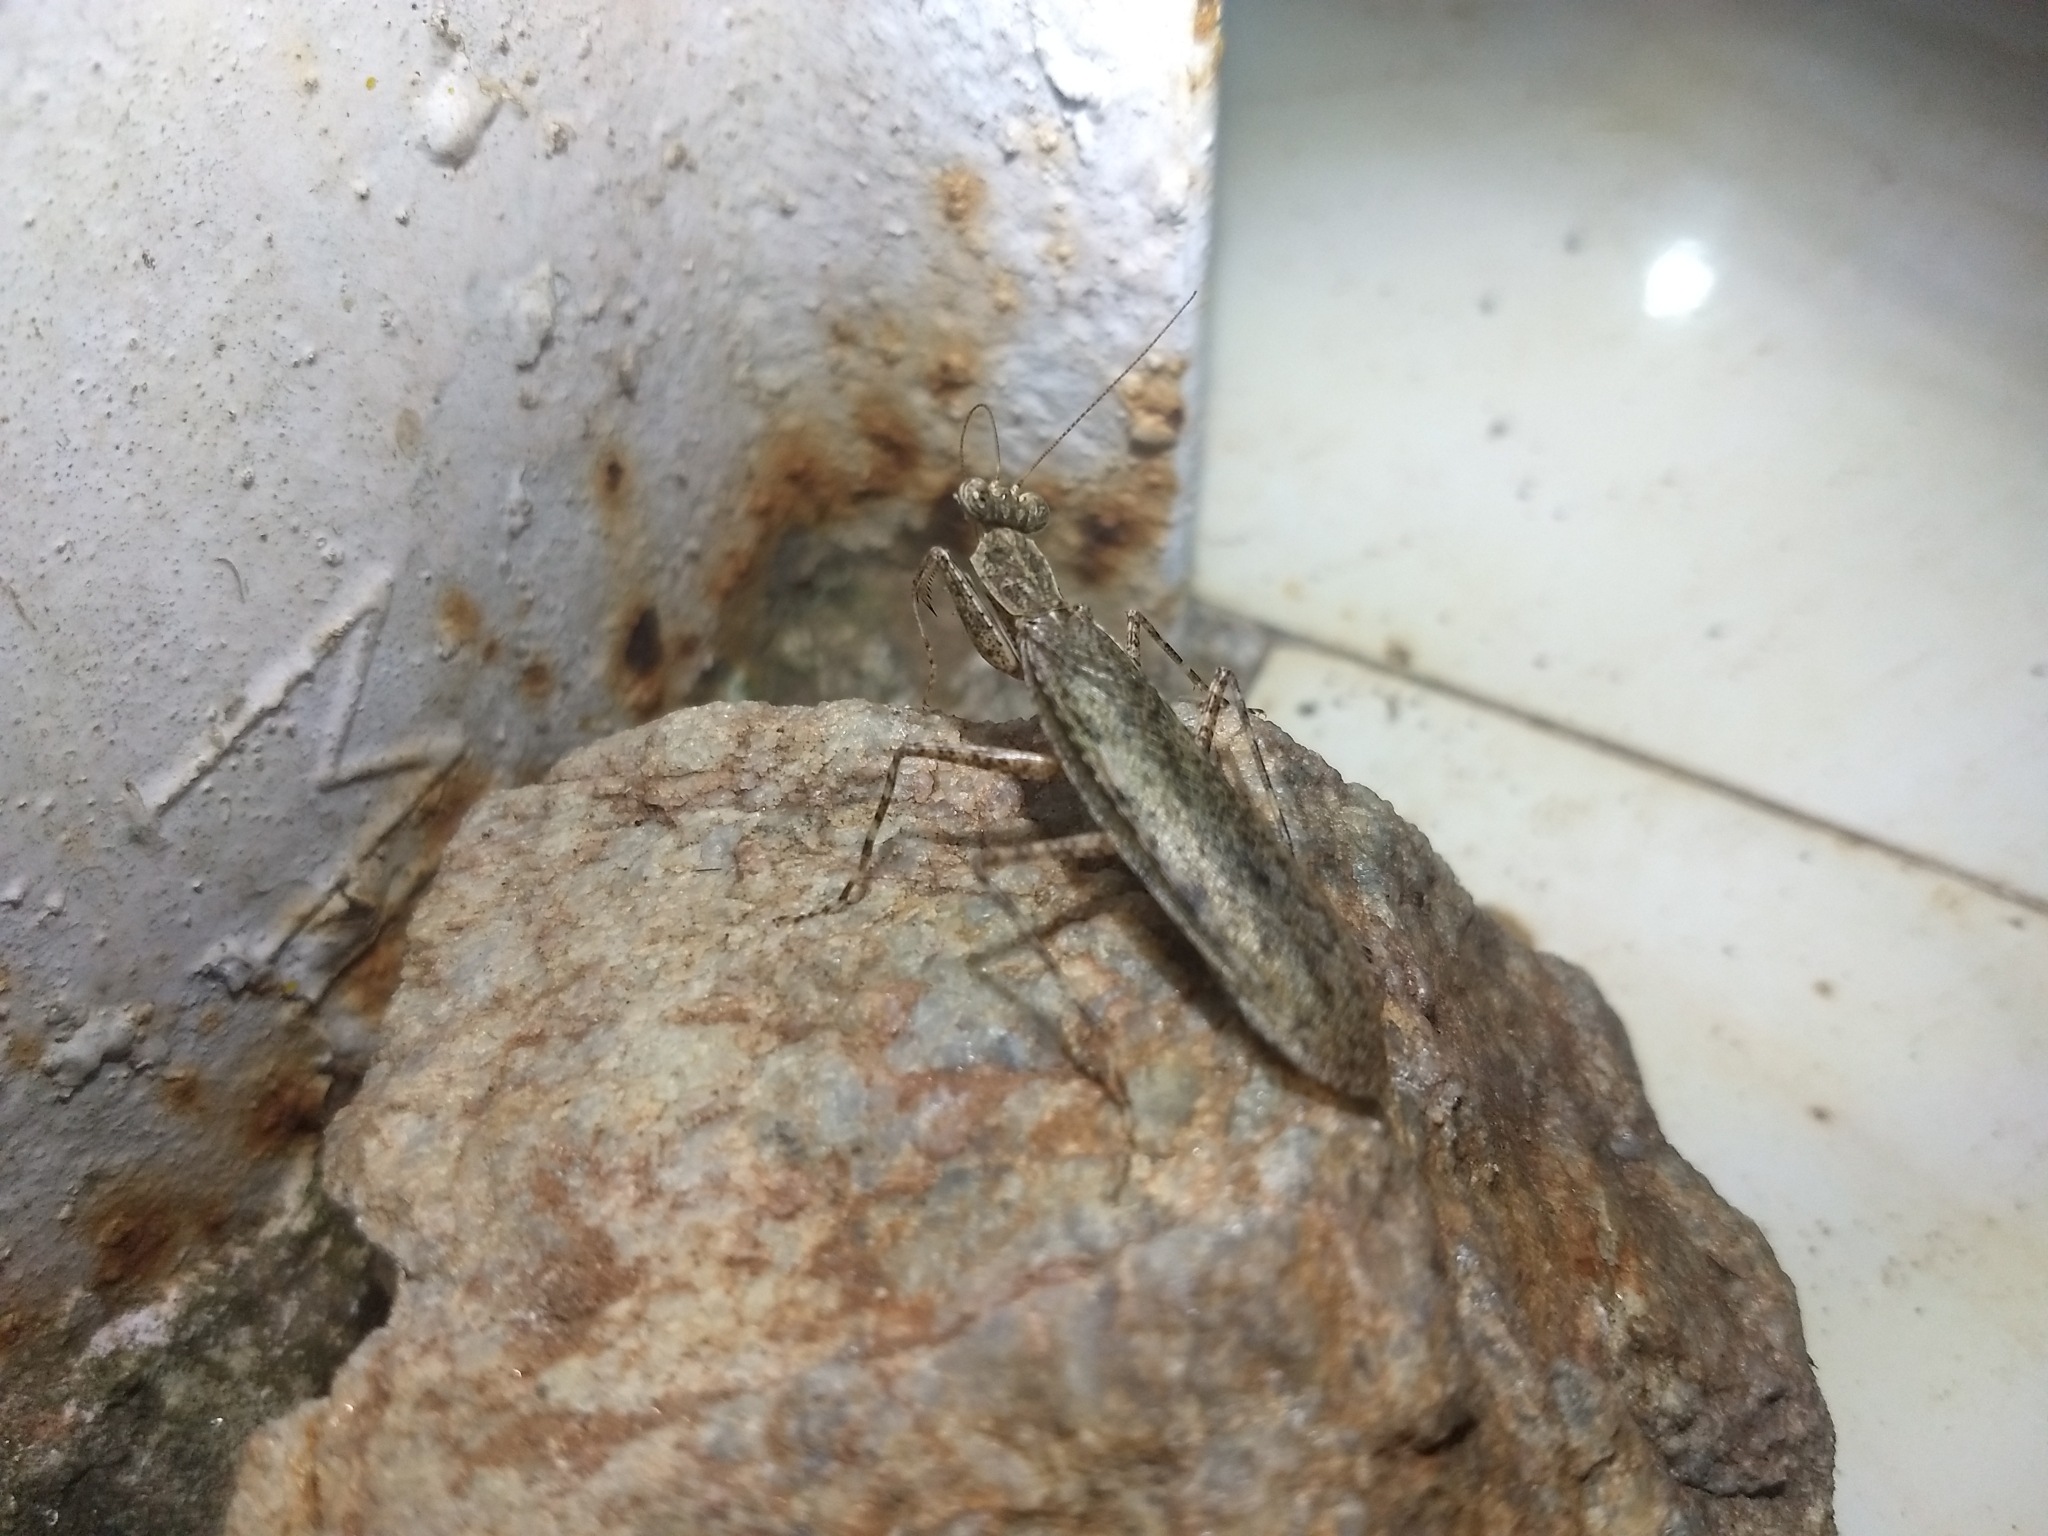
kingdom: Animalia
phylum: Arthropoda
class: Insecta
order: Mantodea
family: Gonypetidae
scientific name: Gonypetidae
